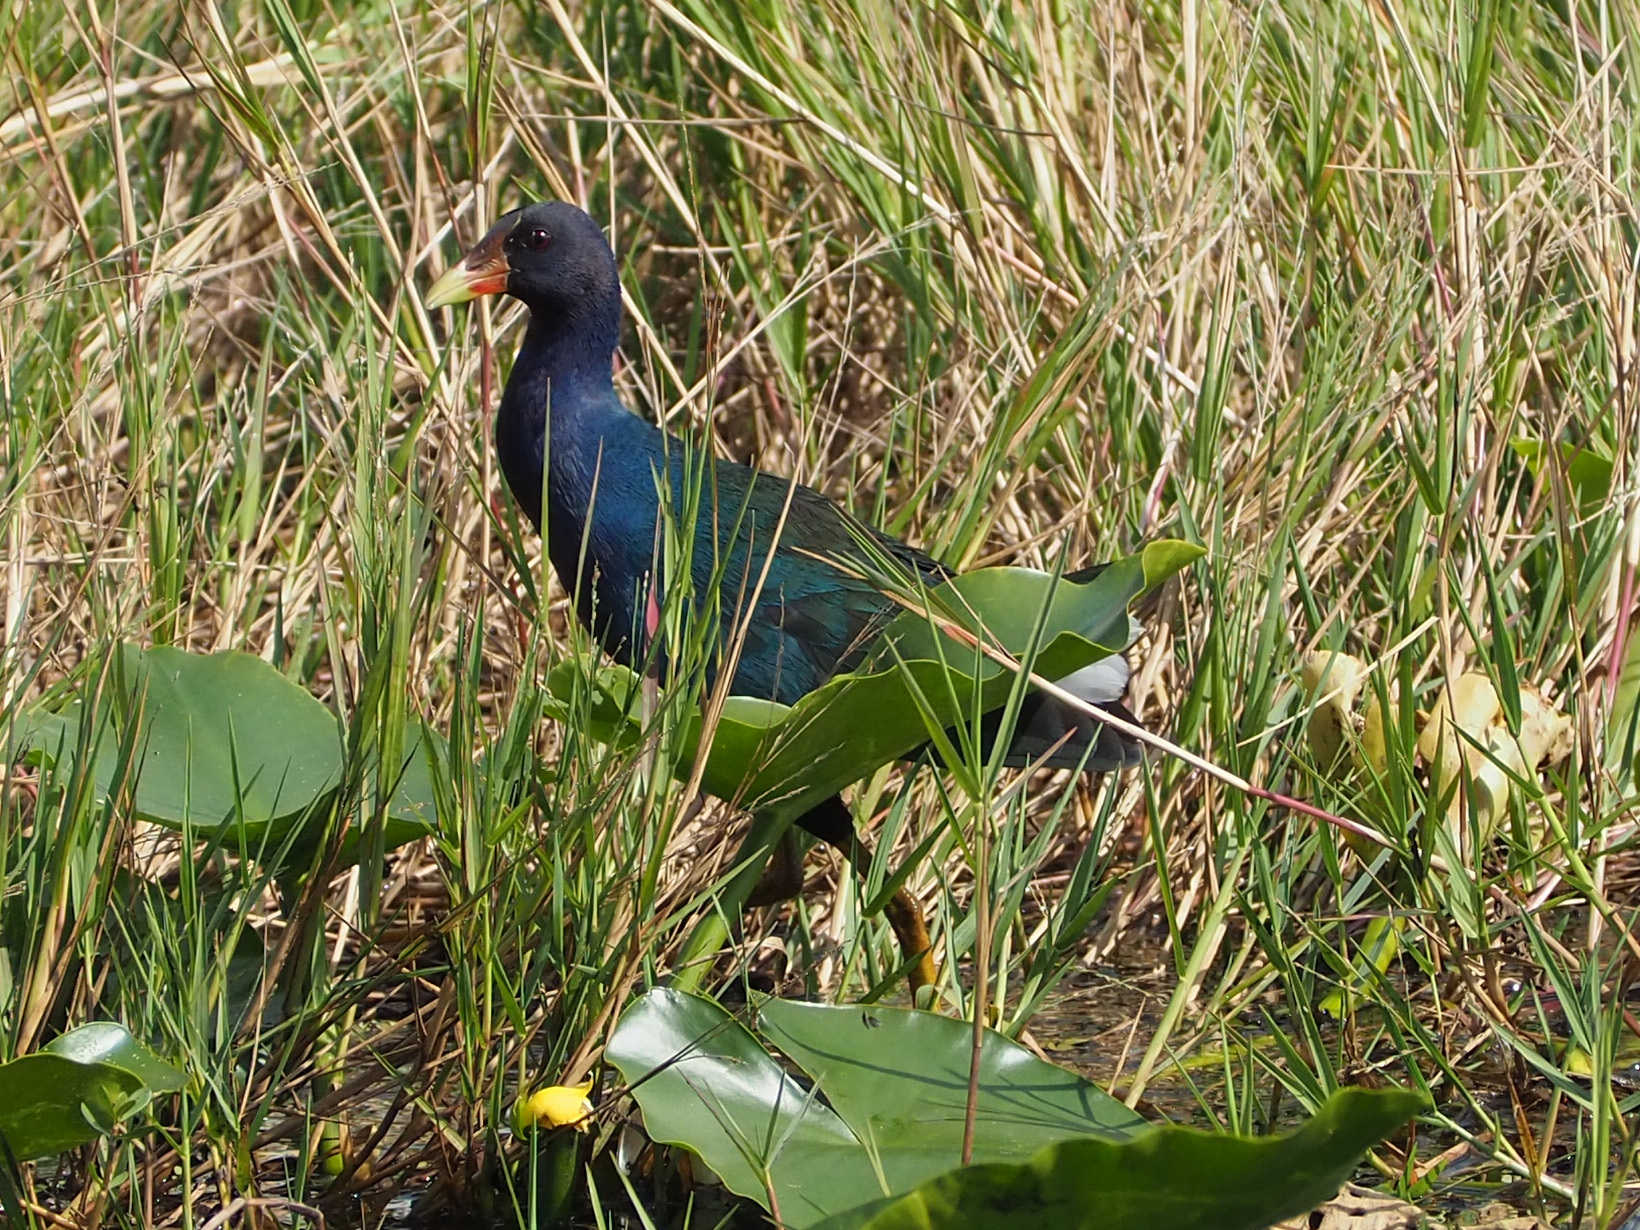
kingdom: Animalia
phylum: Chordata
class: Aves
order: Gruiformes
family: Rallidae
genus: Porphyrio
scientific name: Porphyrio martinica
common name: Purple gallinule
